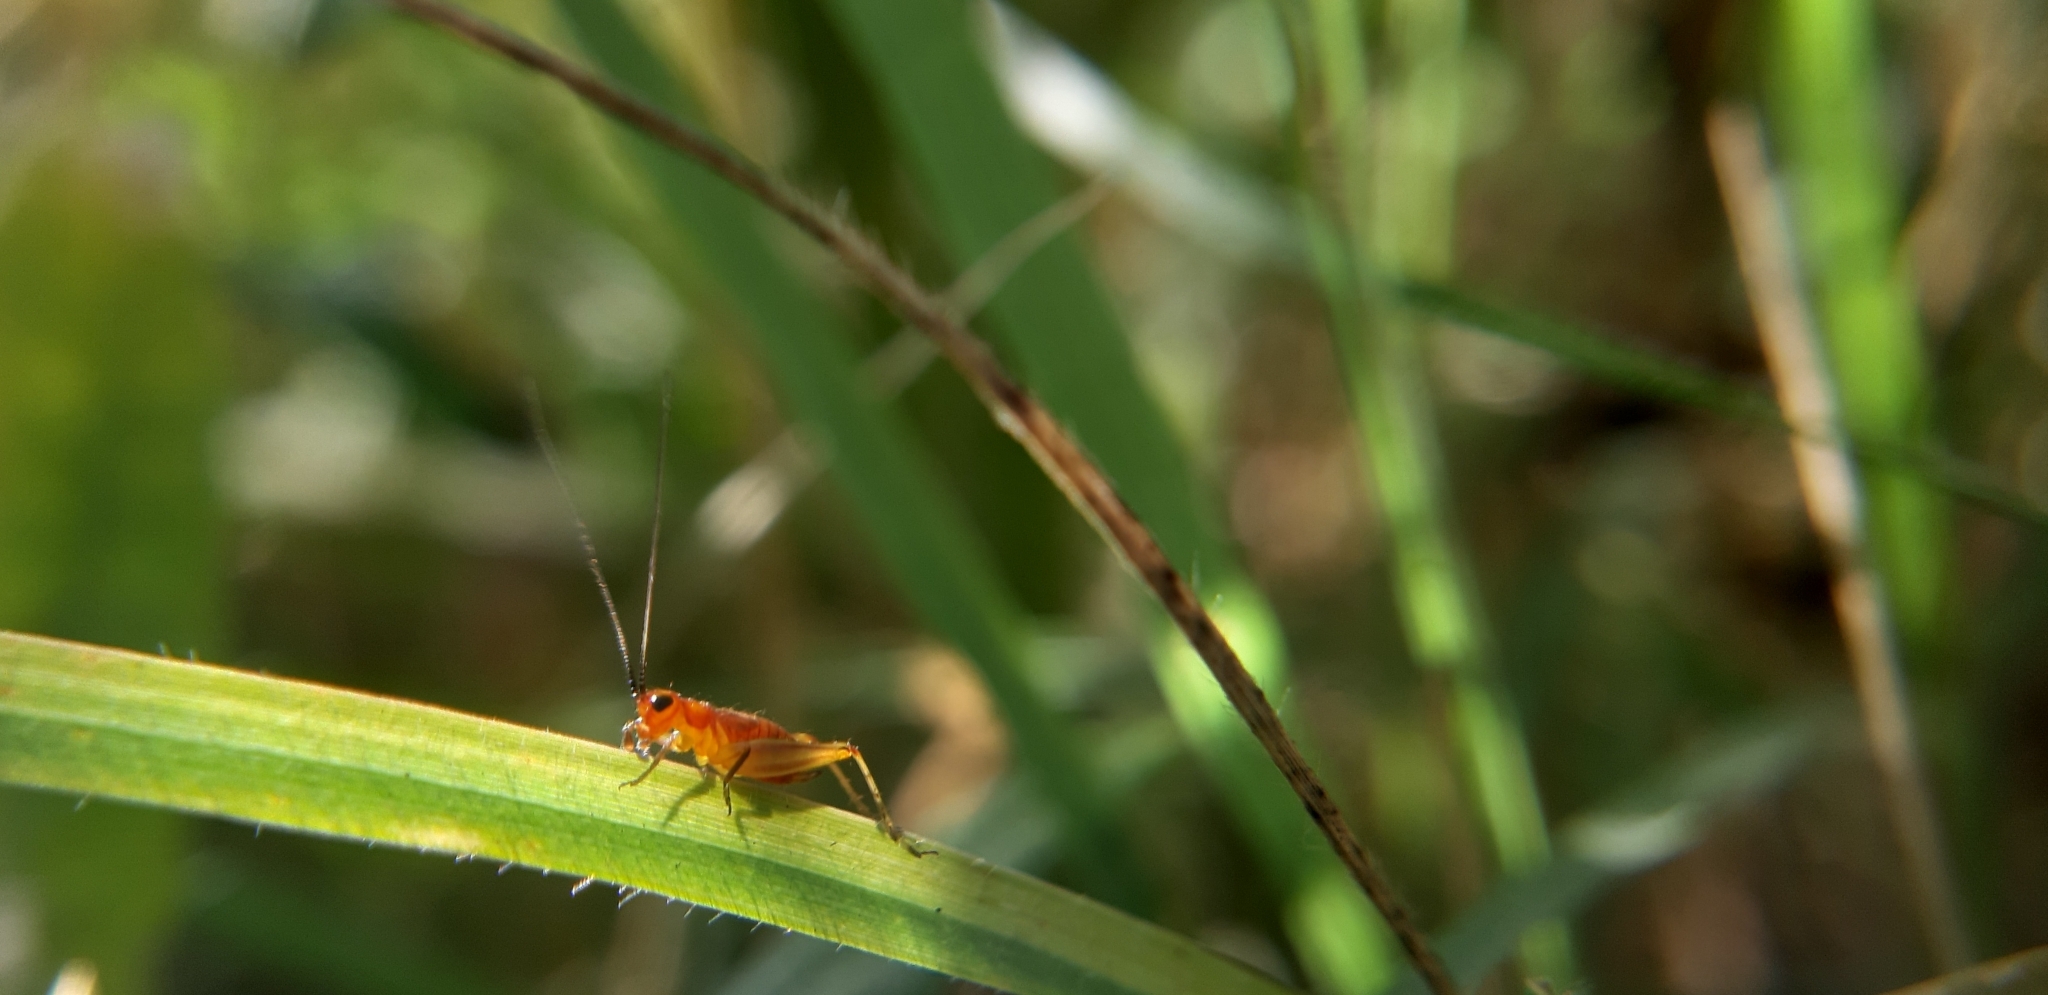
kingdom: Animalia
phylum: Arthropoda
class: Insecta
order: Orthoptera
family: Trigonidiidae
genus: Trigonidium
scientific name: Trigonidium cicindeloides
